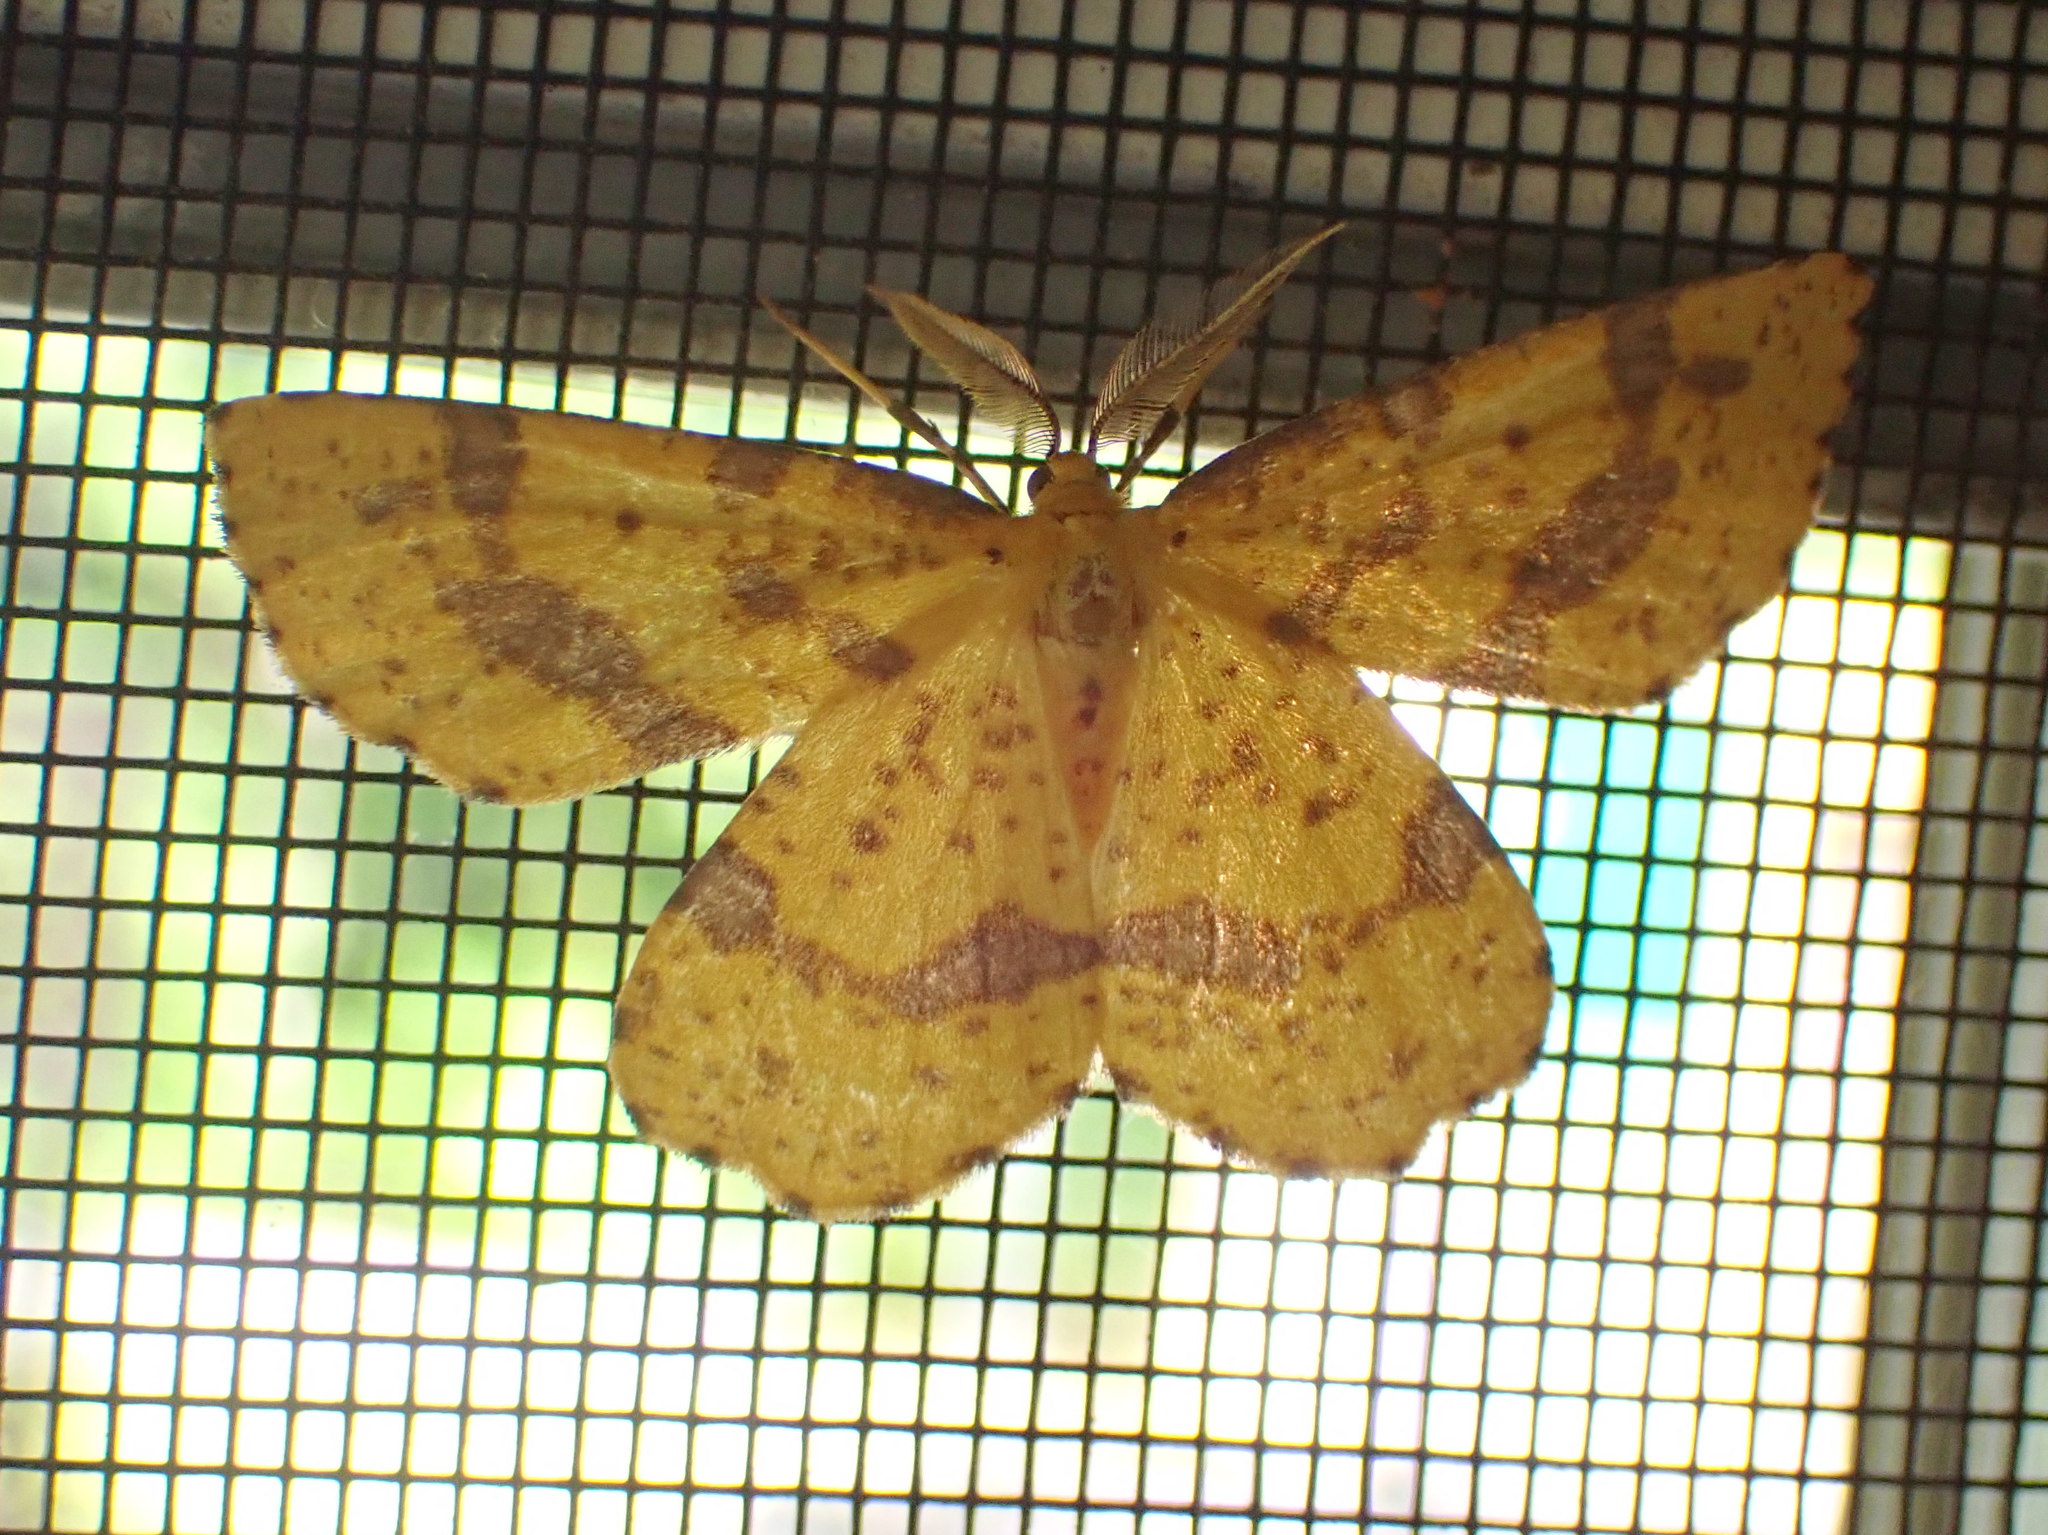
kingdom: Animalia
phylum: Arthropoda
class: Insecta
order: Lepidoptera
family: Geometridae
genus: Xanthotype
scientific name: Xanthotype
